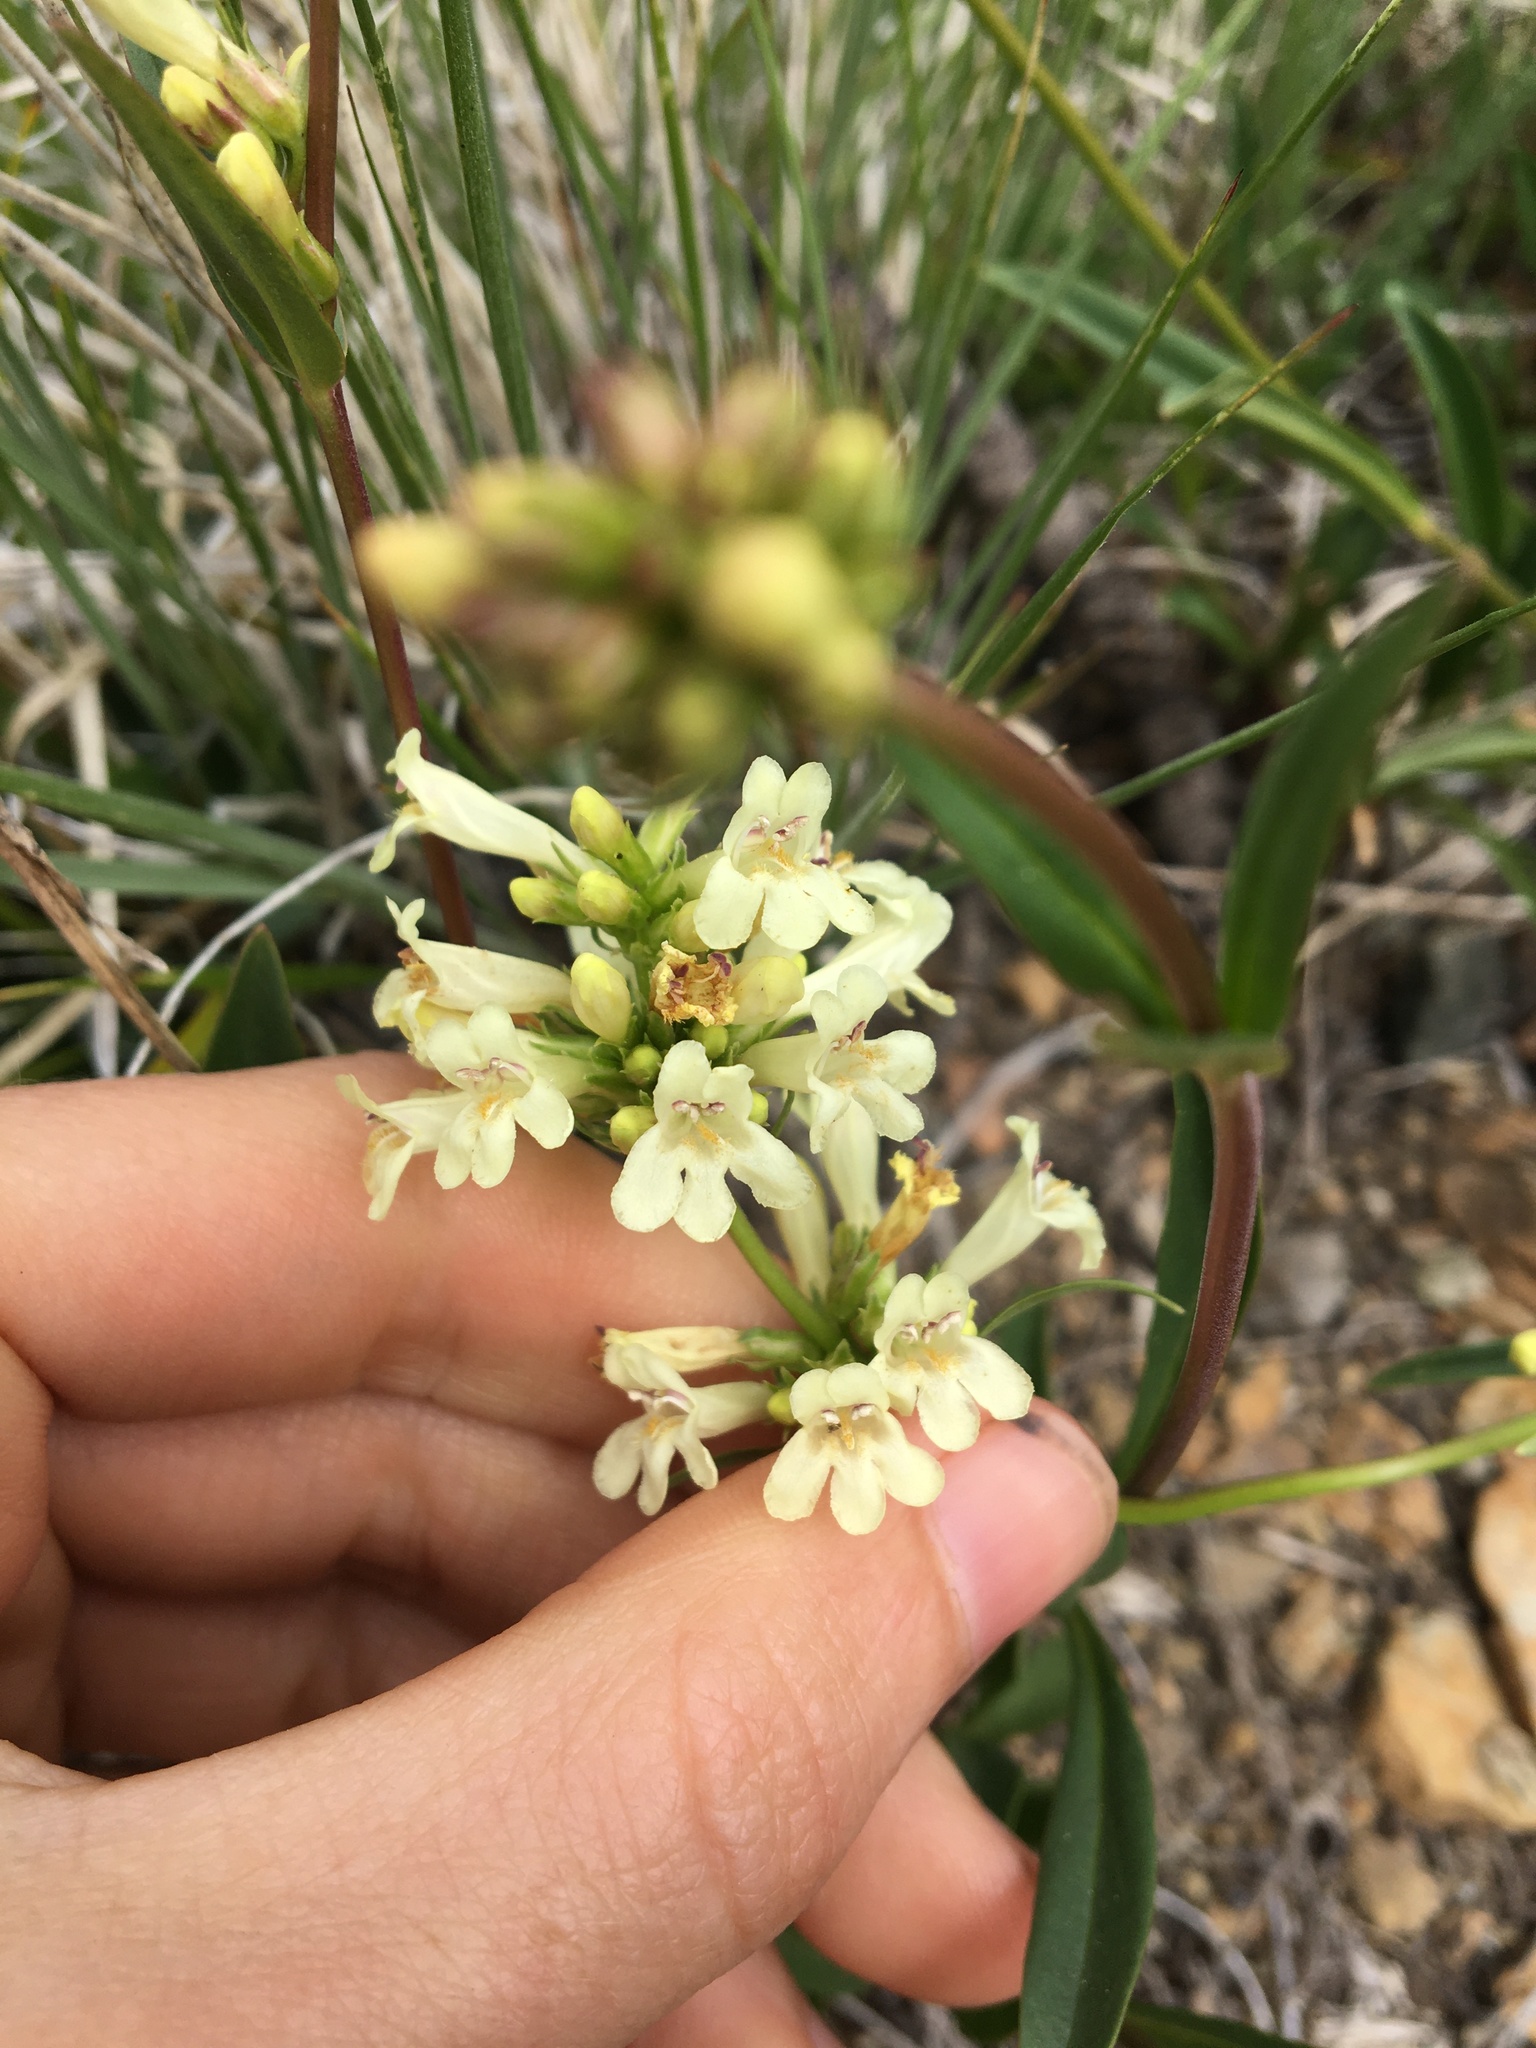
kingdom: Plantae
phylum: Tracheophyta
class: Magnoliopsida
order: Lamiales
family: Plantaginaceae
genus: Penstemon
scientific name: Penstemon confertus
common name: Lesser yellow beardtongue
